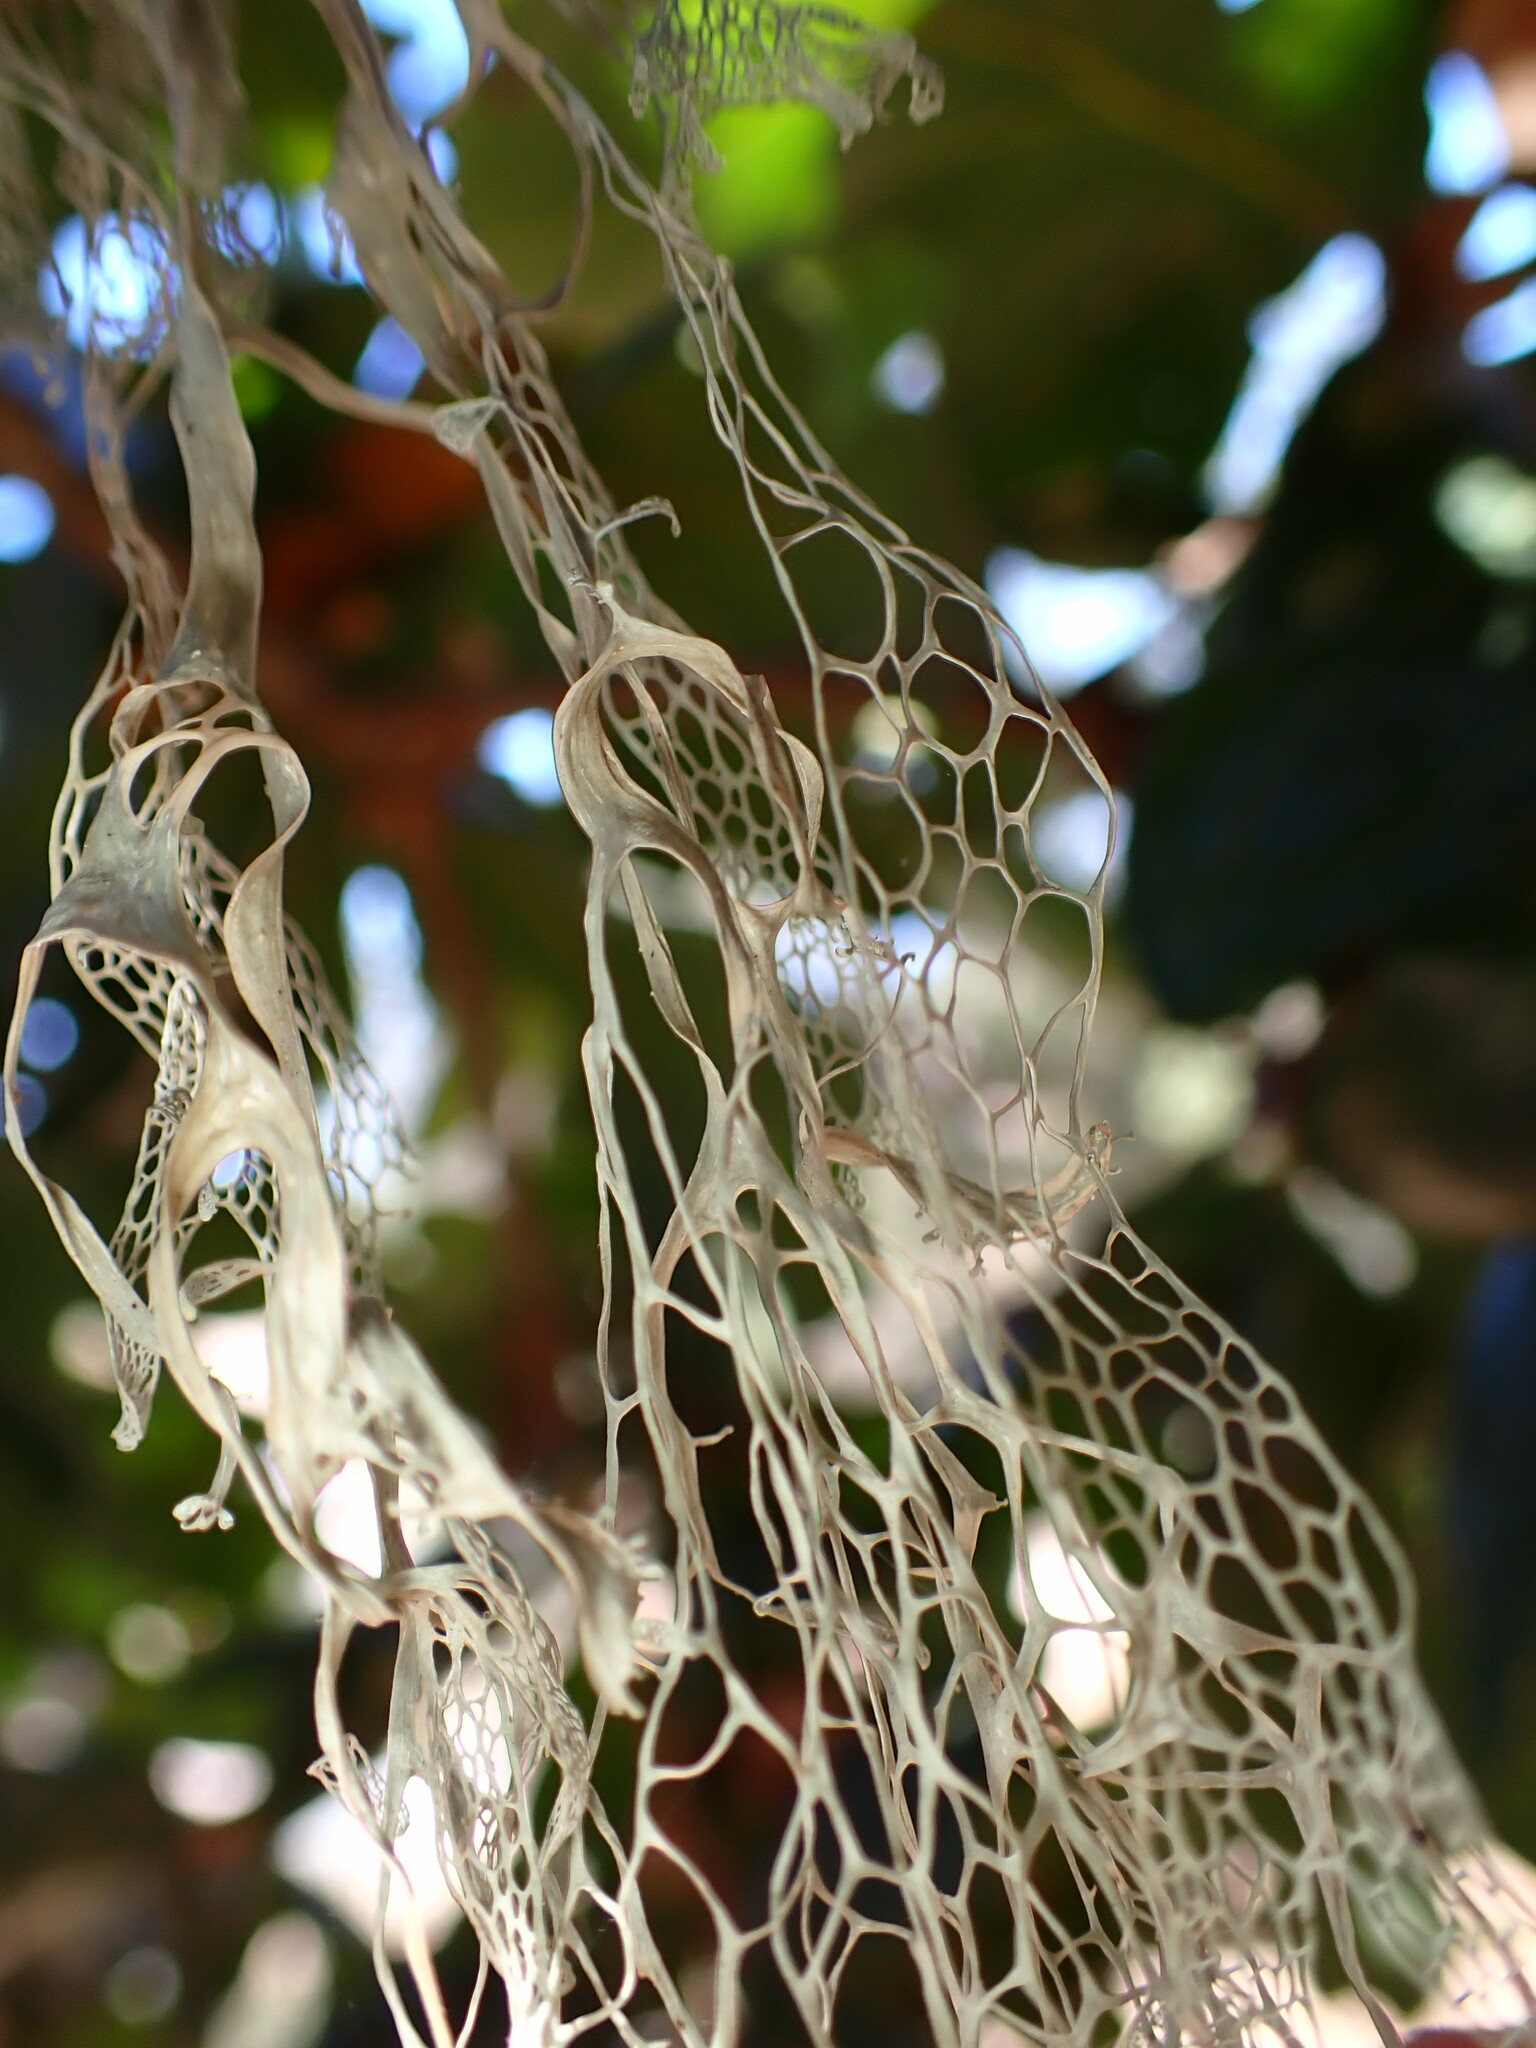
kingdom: Fungi
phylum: Ascomycota
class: Lecanoromycetes
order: Lecanorales
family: Ramalinaceae
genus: Ramalina
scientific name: Ramalina menziesii
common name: Lace lichen
